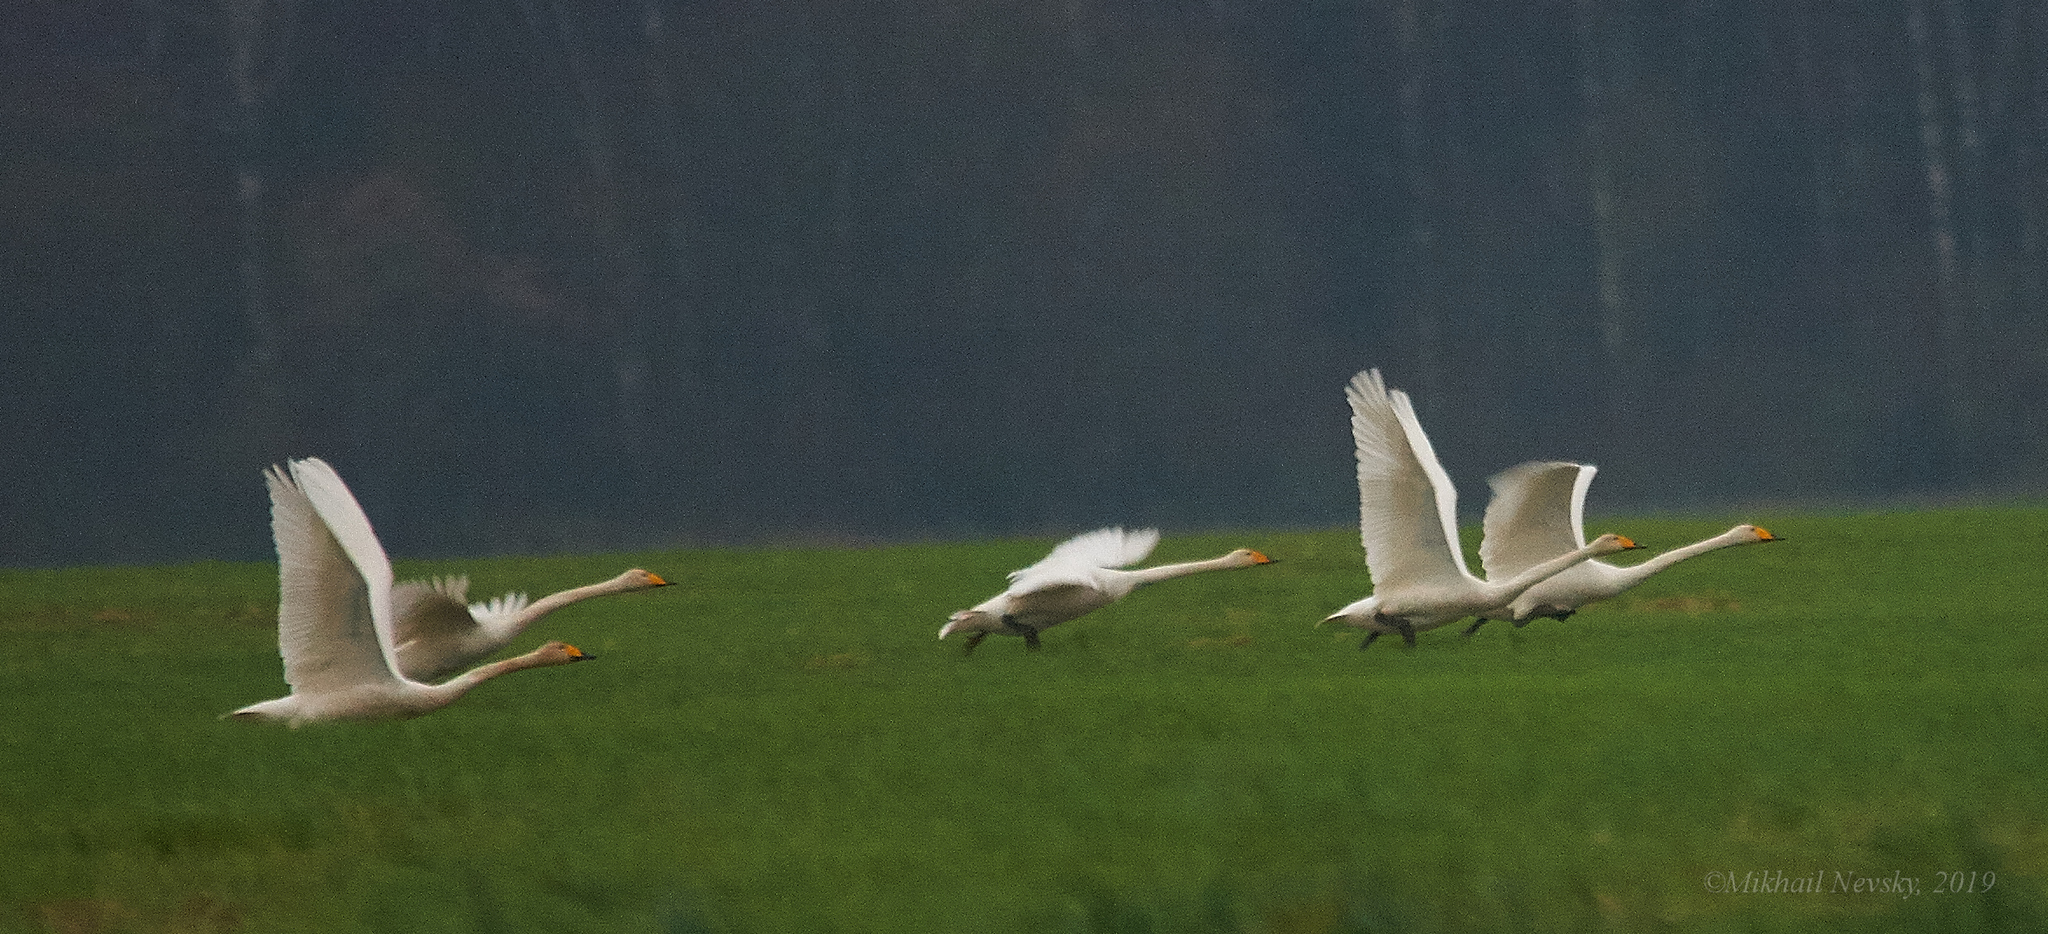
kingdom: Animalia
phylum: Chordata
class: Aves
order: Anseriformes
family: Anatidae
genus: Cygnus
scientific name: Cygnus cygnus
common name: Whooper swan
